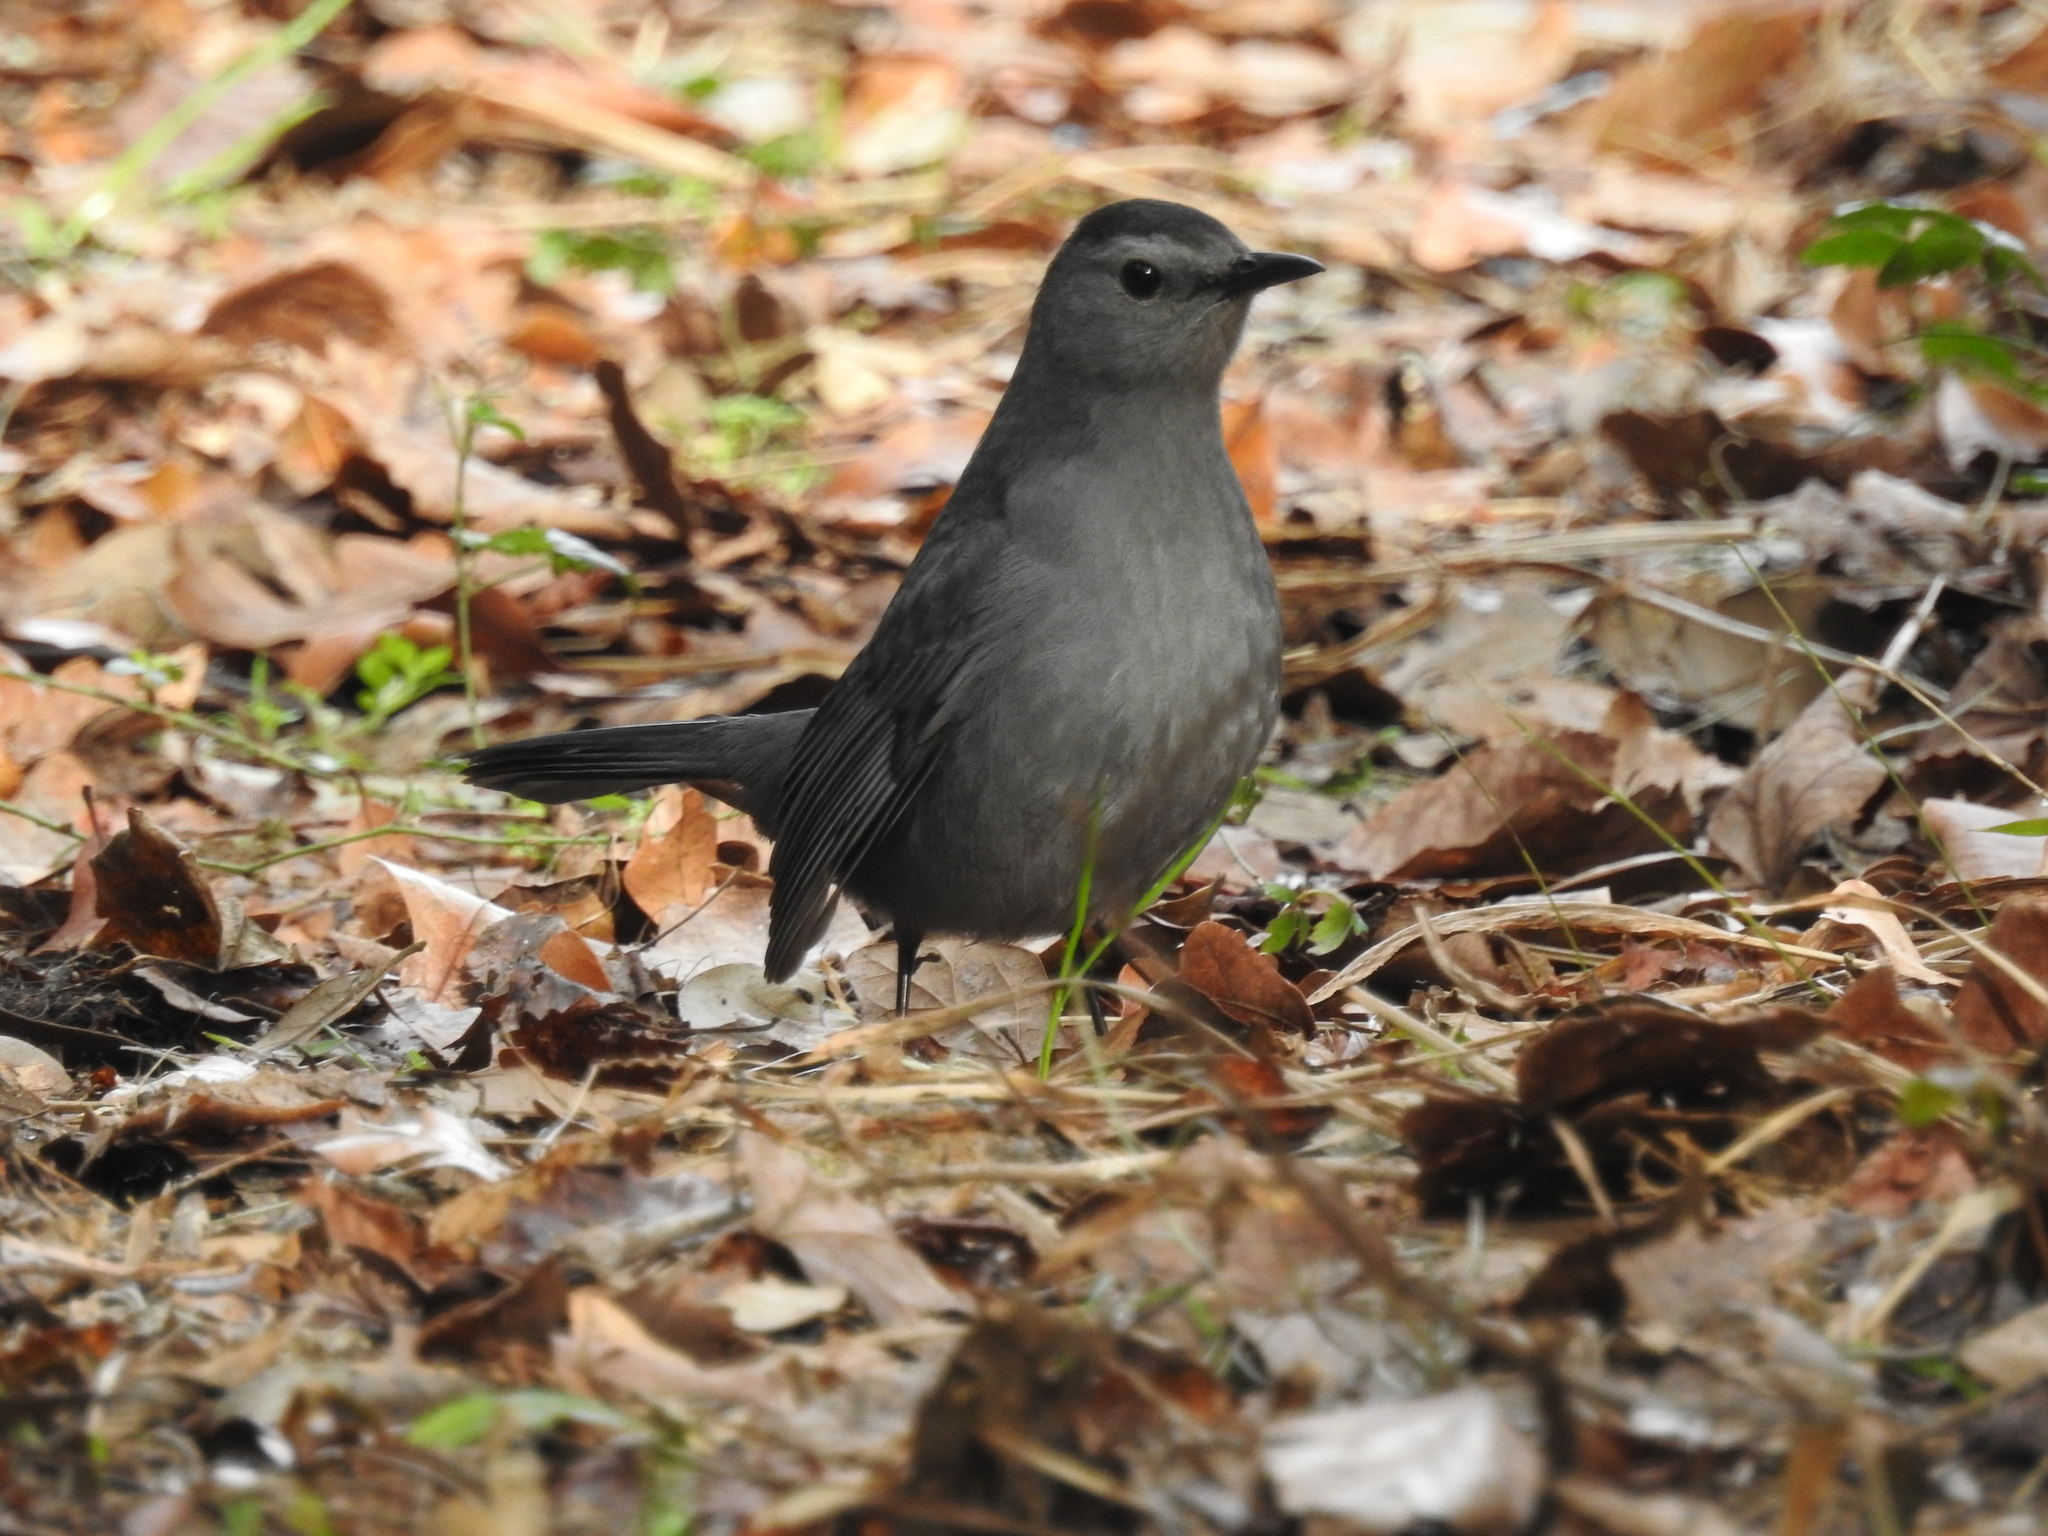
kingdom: Animalia
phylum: Chordata
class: Aves
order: Passeriformes
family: Mimidae
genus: Dumetella
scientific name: Dumetella carolinensis
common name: Gray catbird
